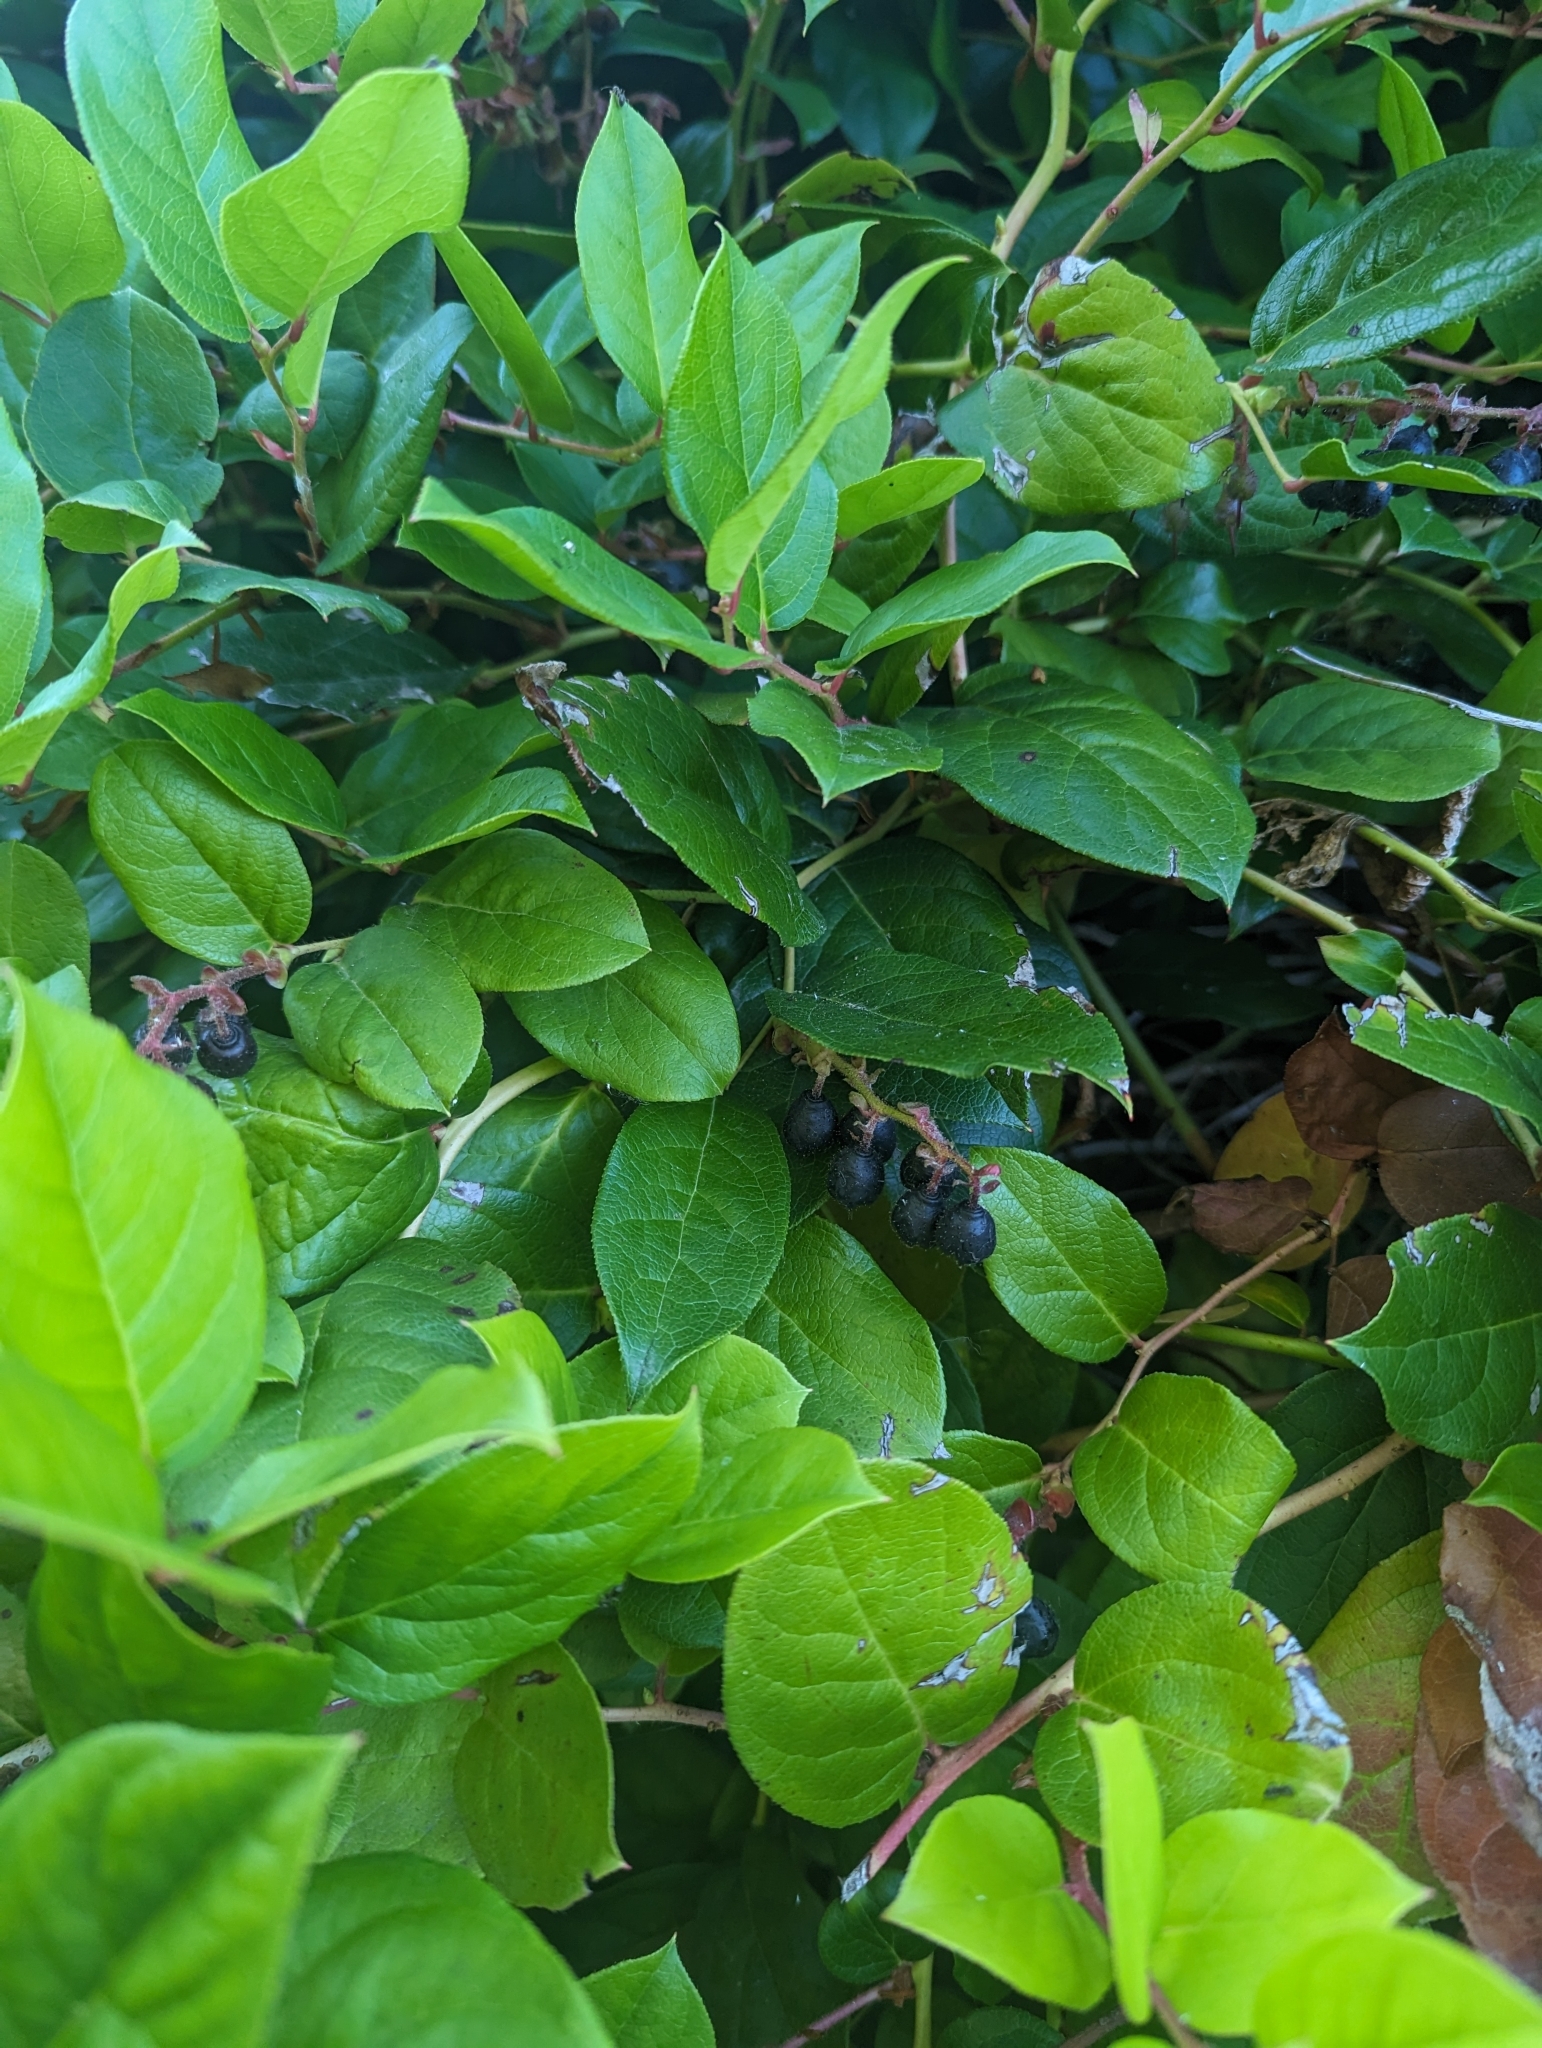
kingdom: Plantae
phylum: Tracheophyta
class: Magnoliopsida
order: Ericales
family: Ericaceae
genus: Gaultheria
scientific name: Gaultheria shallon
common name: Shallon
